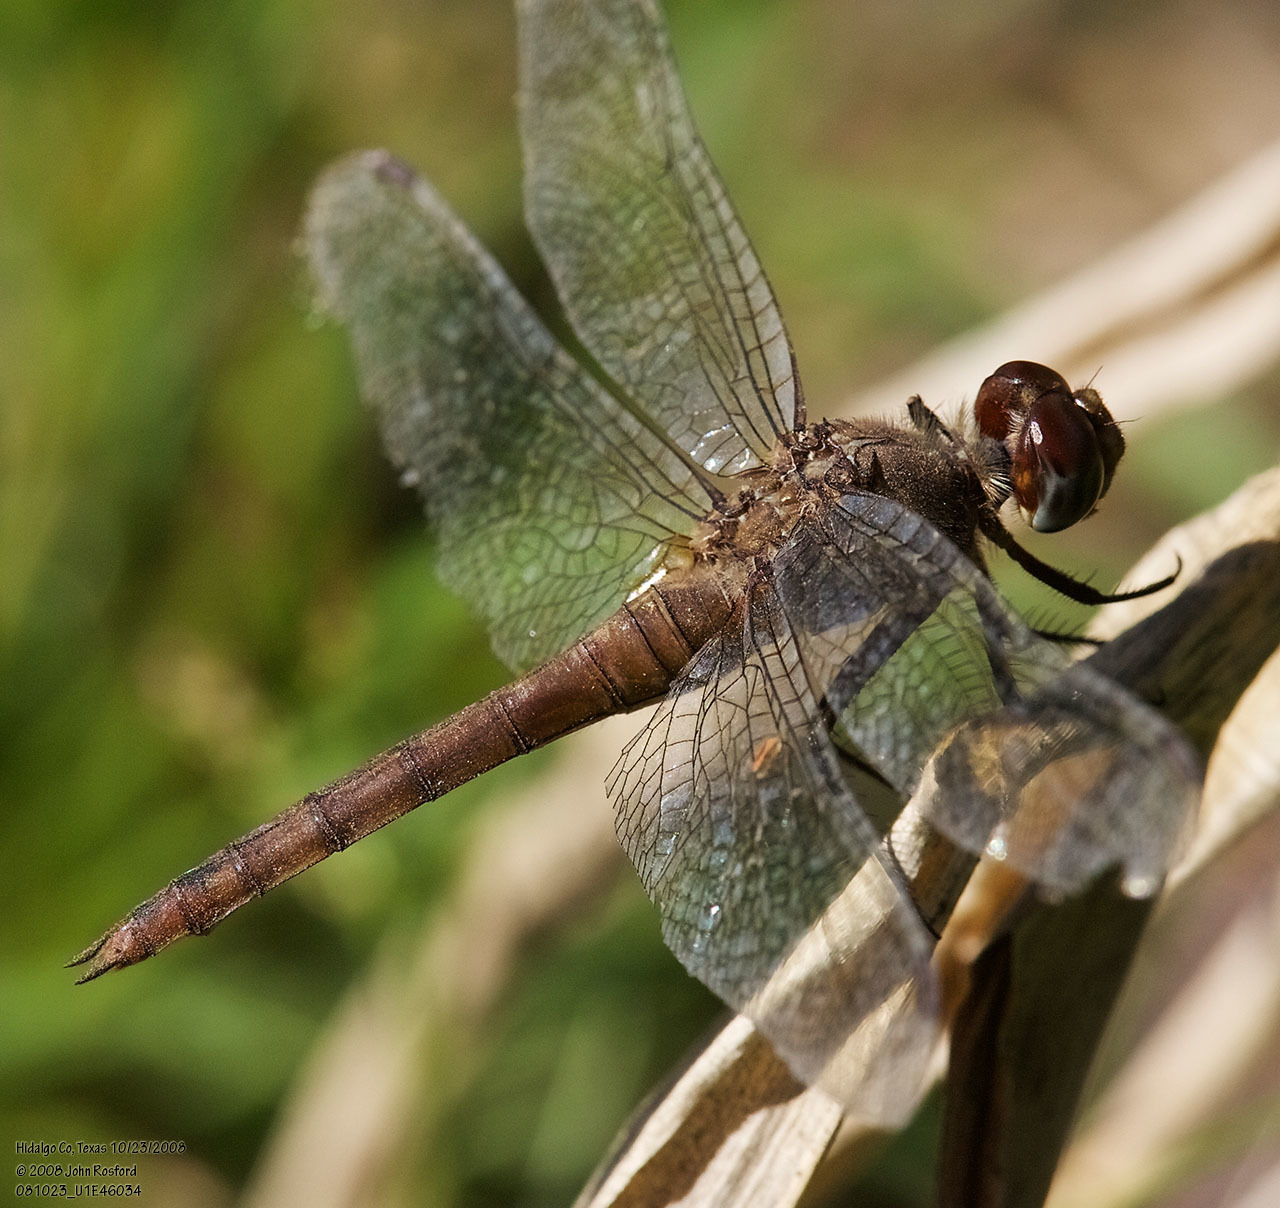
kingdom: Animalia
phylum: Arthropoda
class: Insecta
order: Odonata
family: Libellulidae
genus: Brachymesia
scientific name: Brachymesia furcata
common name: Red-taled pennant
